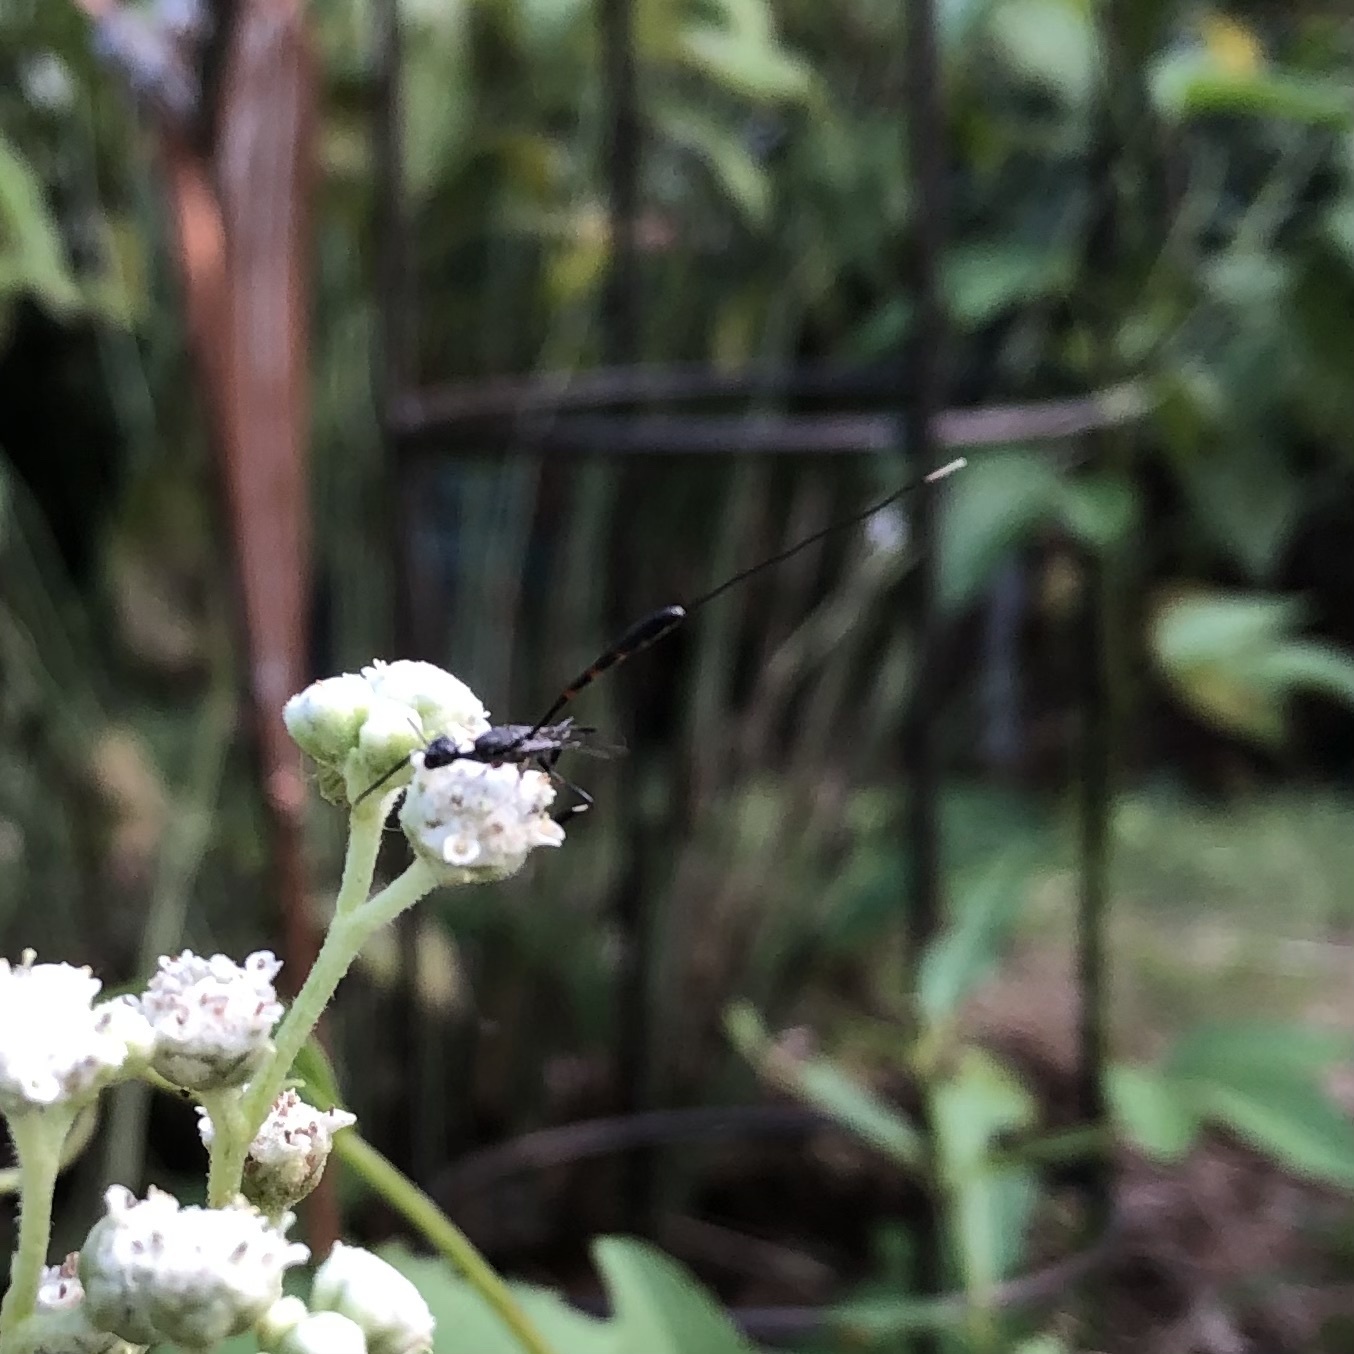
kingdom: Animalia
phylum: Arthropoda
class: Insecta
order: Hymenoptera
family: Gasteruptiidae
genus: Gasteruption
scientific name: Gasteruption
